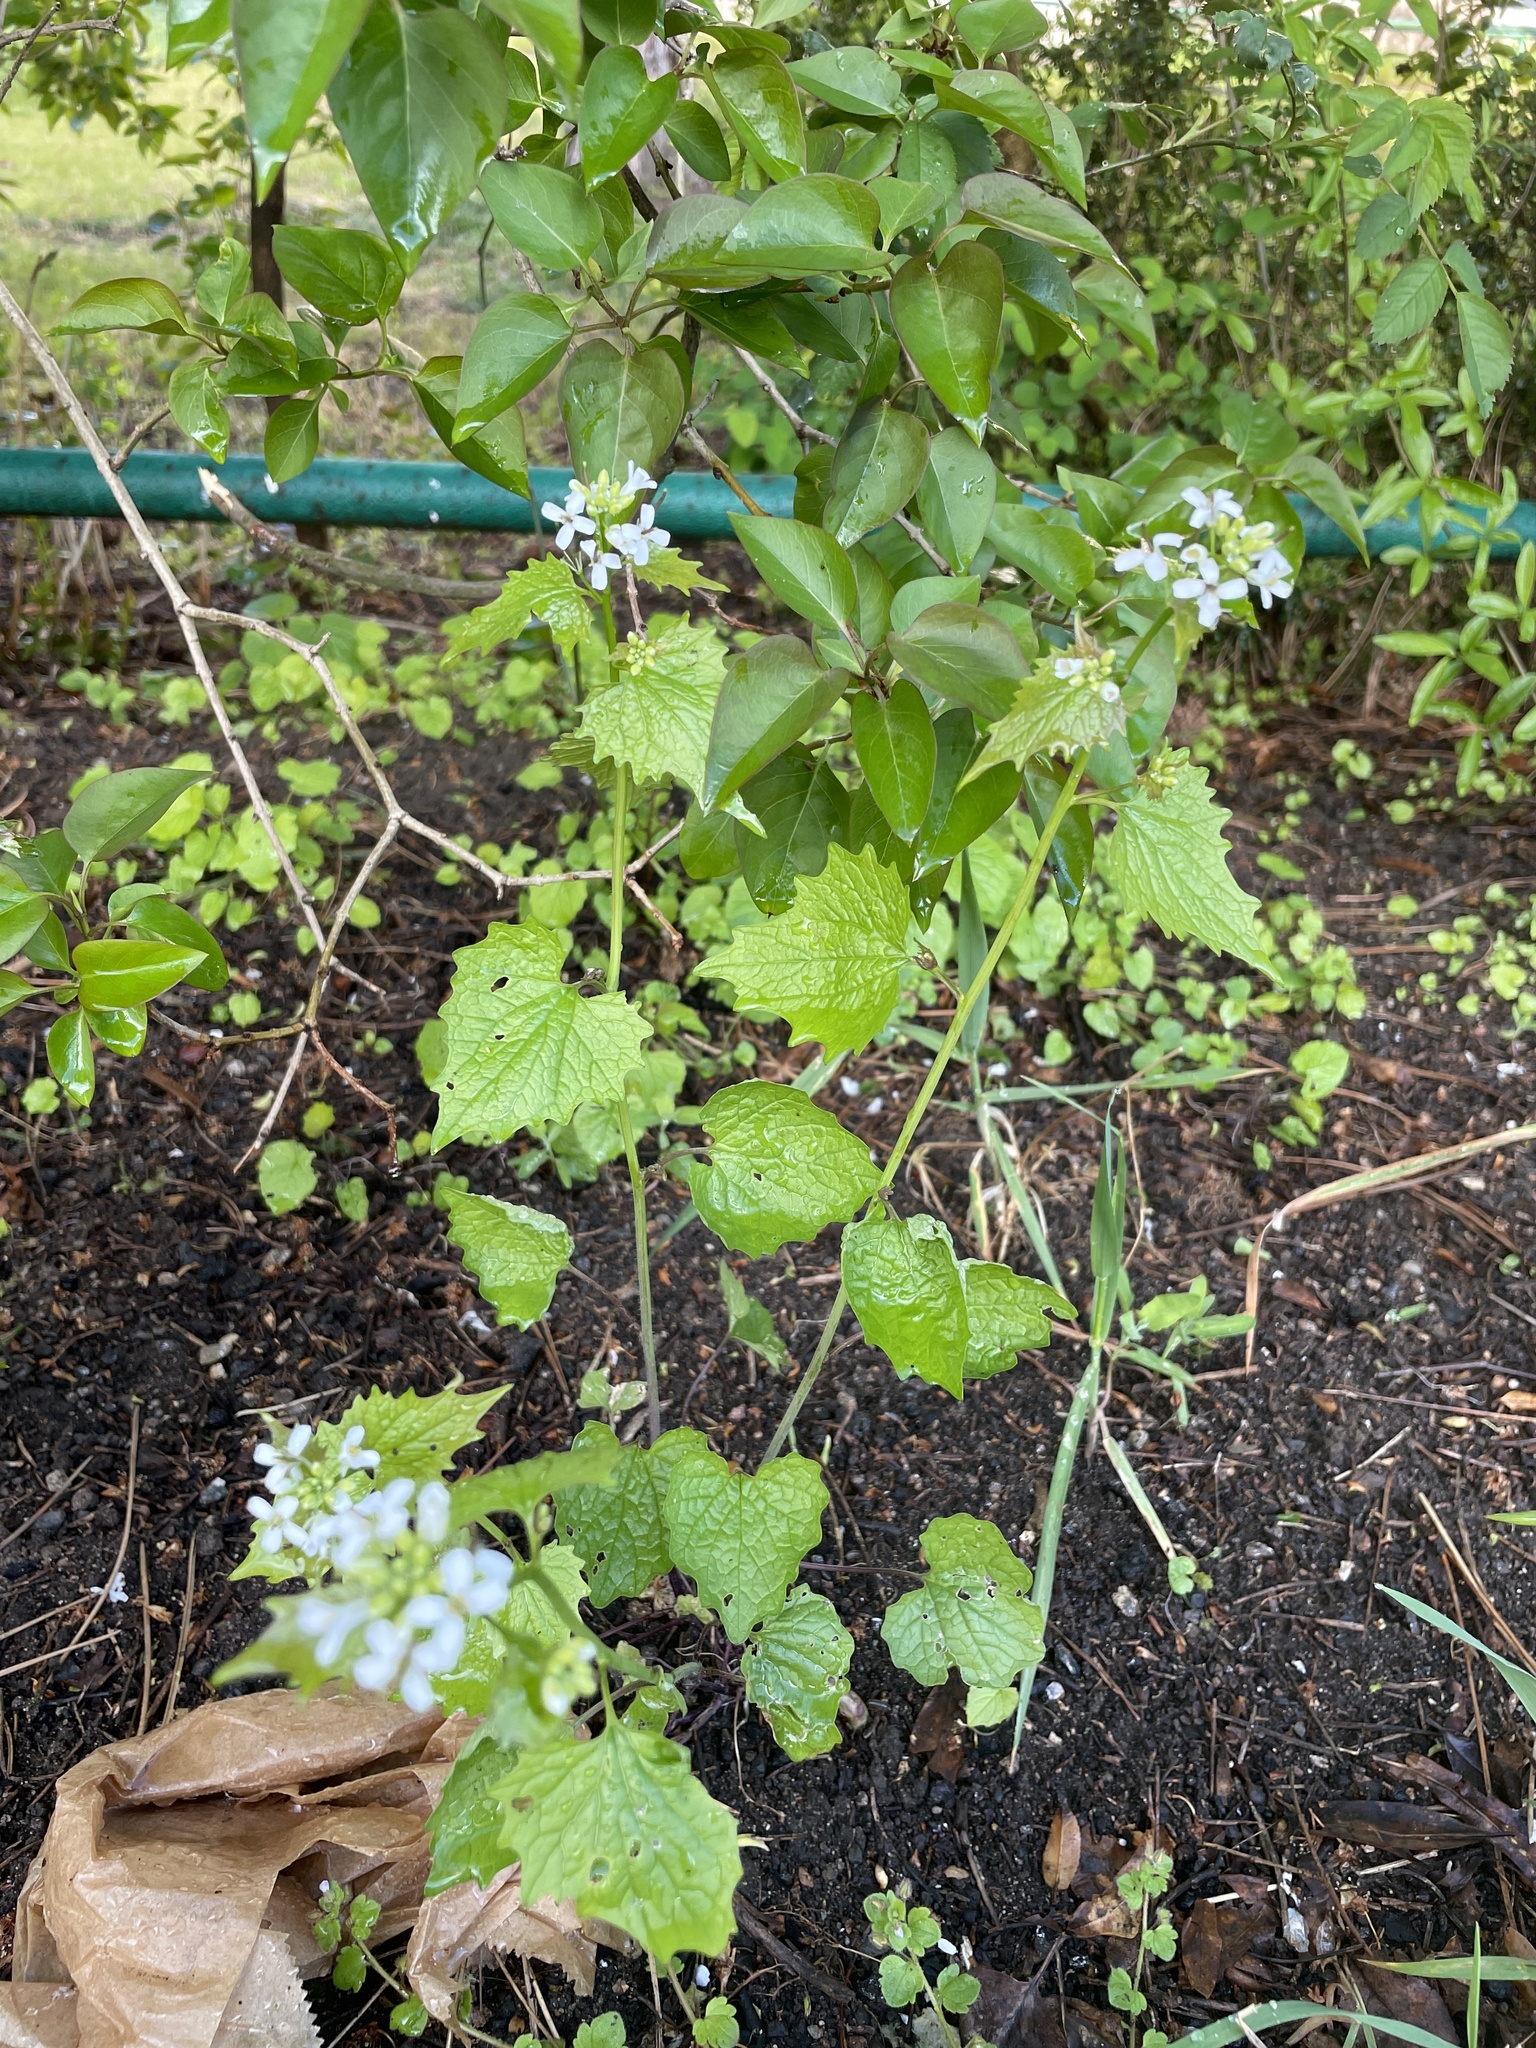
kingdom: Plantae
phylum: Tracheophyta
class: Magnoliopsida
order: Brassicales
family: Brassicaceae
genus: Alliaria
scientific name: Alliaria petiolata
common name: Garlic mustard
